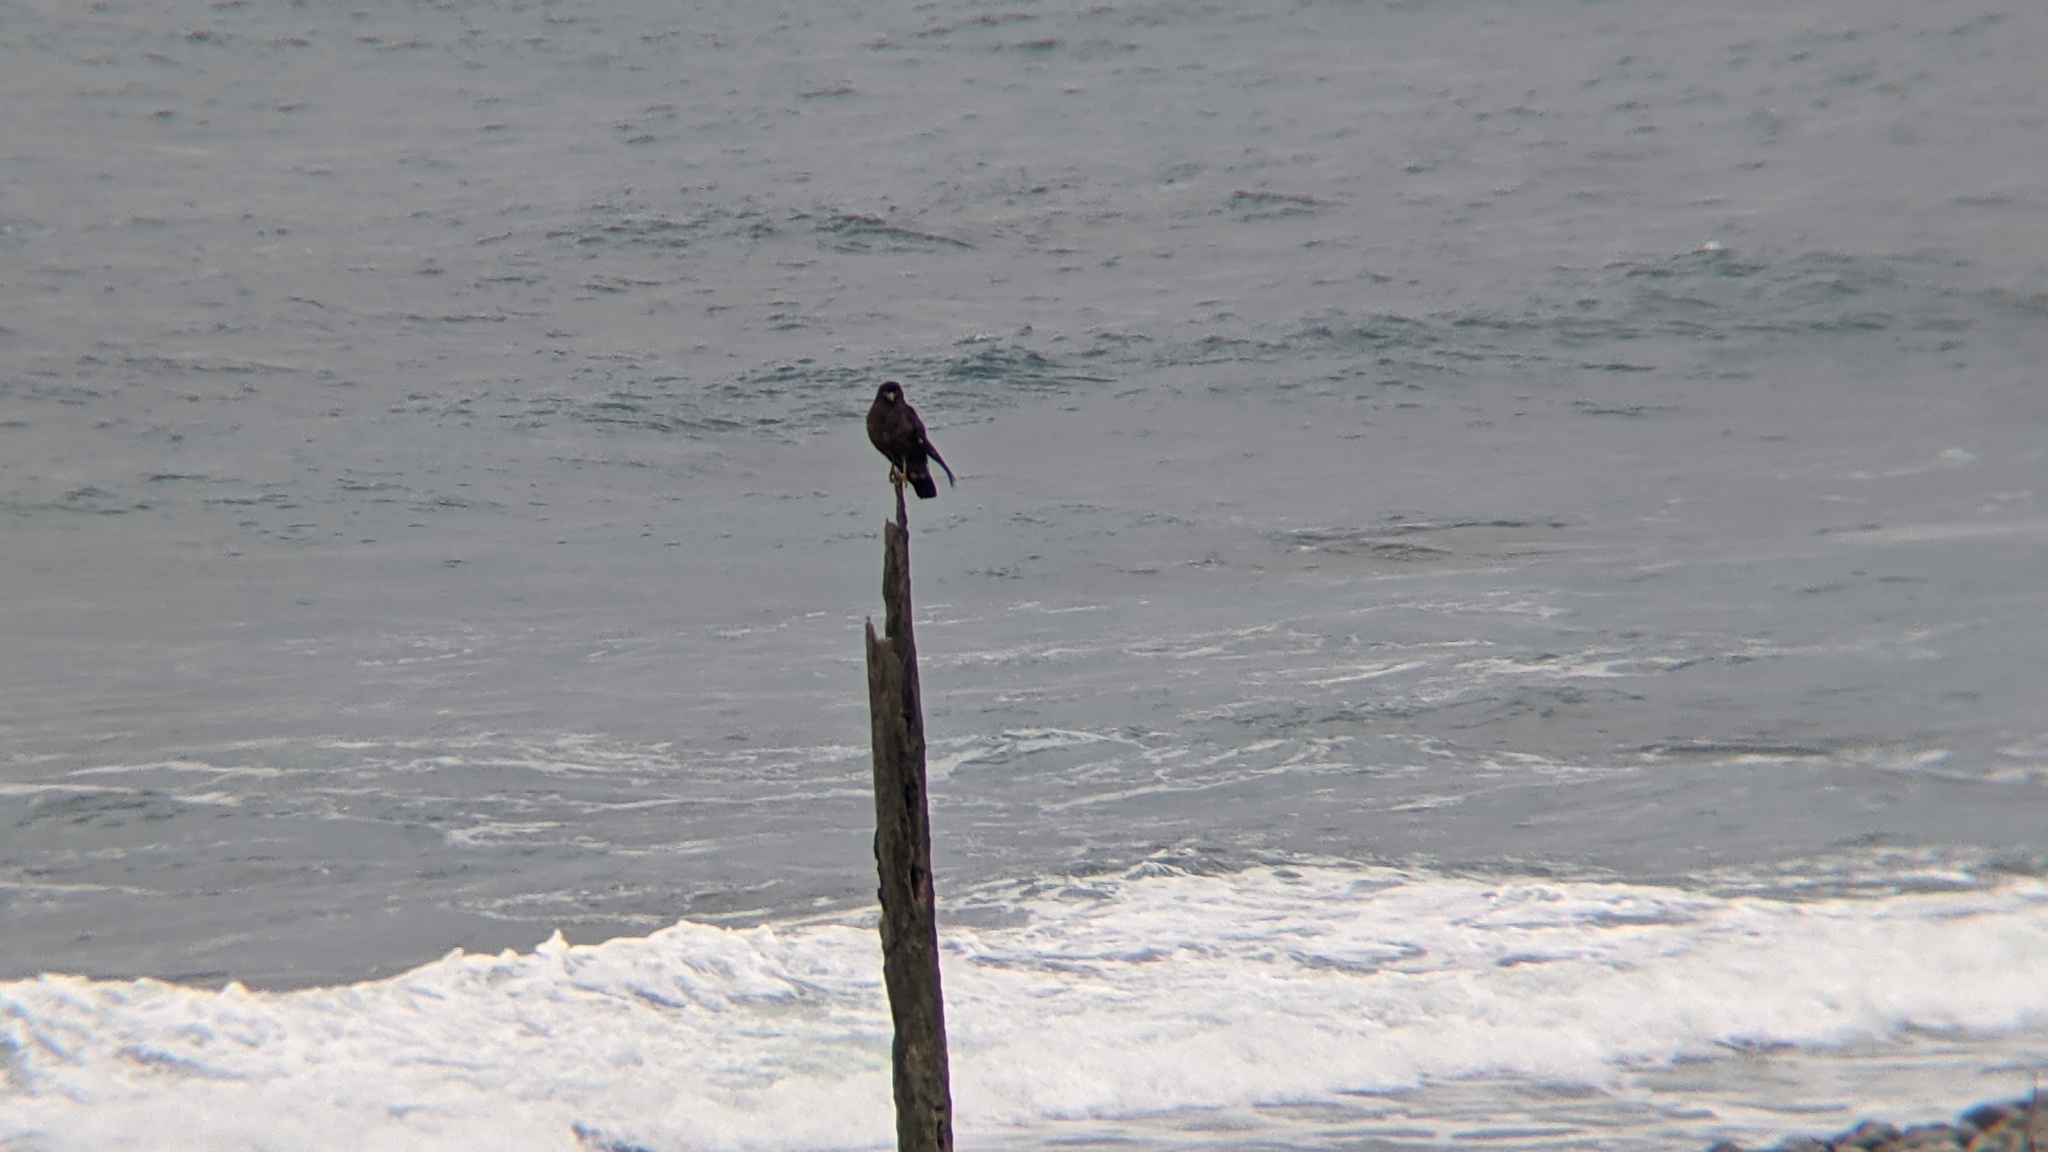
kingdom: Animalia
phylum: Chordata
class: Aves
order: Accipitriformes
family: Accipitridae
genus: Spilornis
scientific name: Spilornis cheela
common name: Crested serpent eagle
